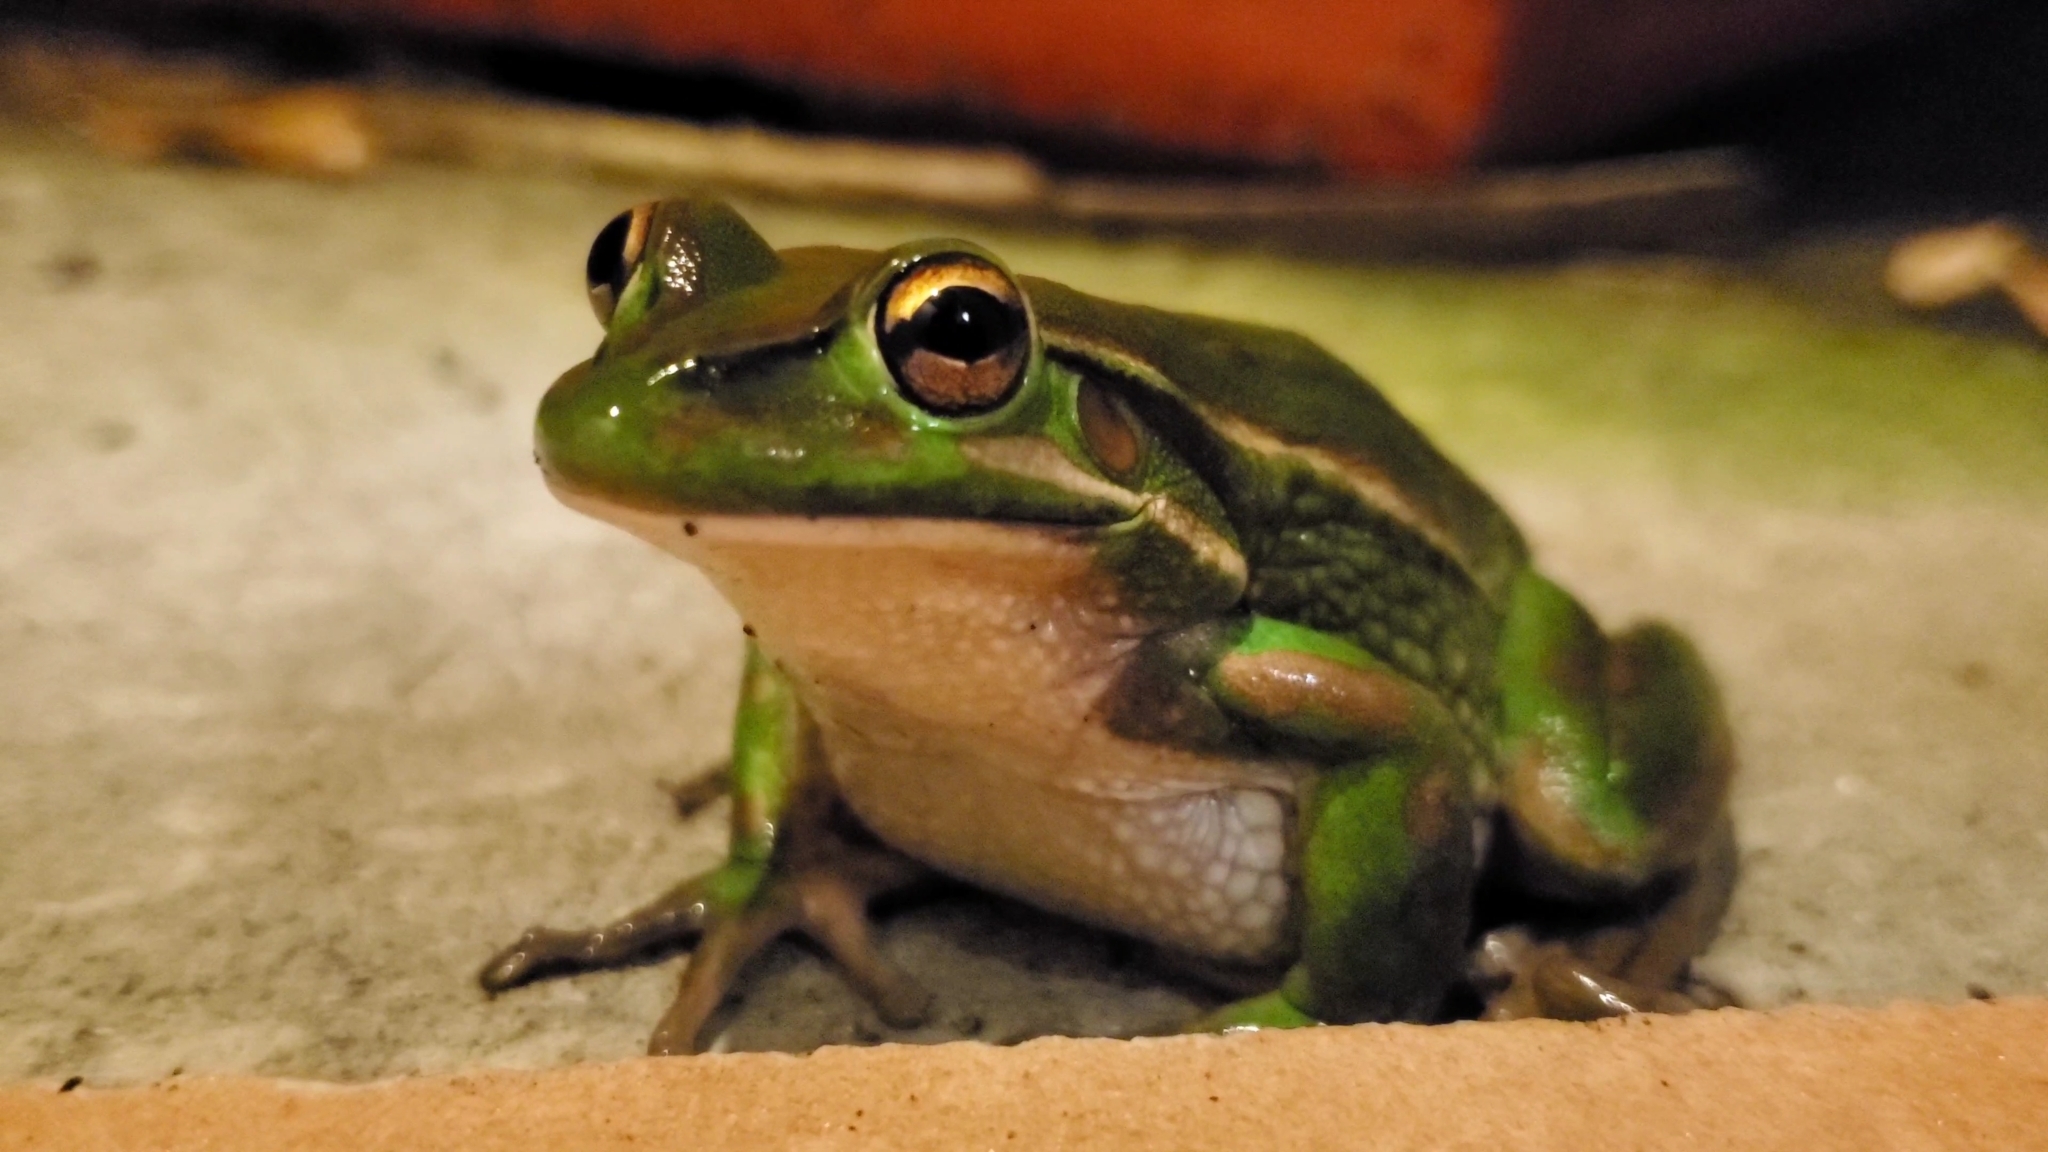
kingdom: Animalia
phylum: Chordata
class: Amphibia
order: Anura
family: Pelodryadidae
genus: Ranoidea
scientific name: Ranoidea aurea
